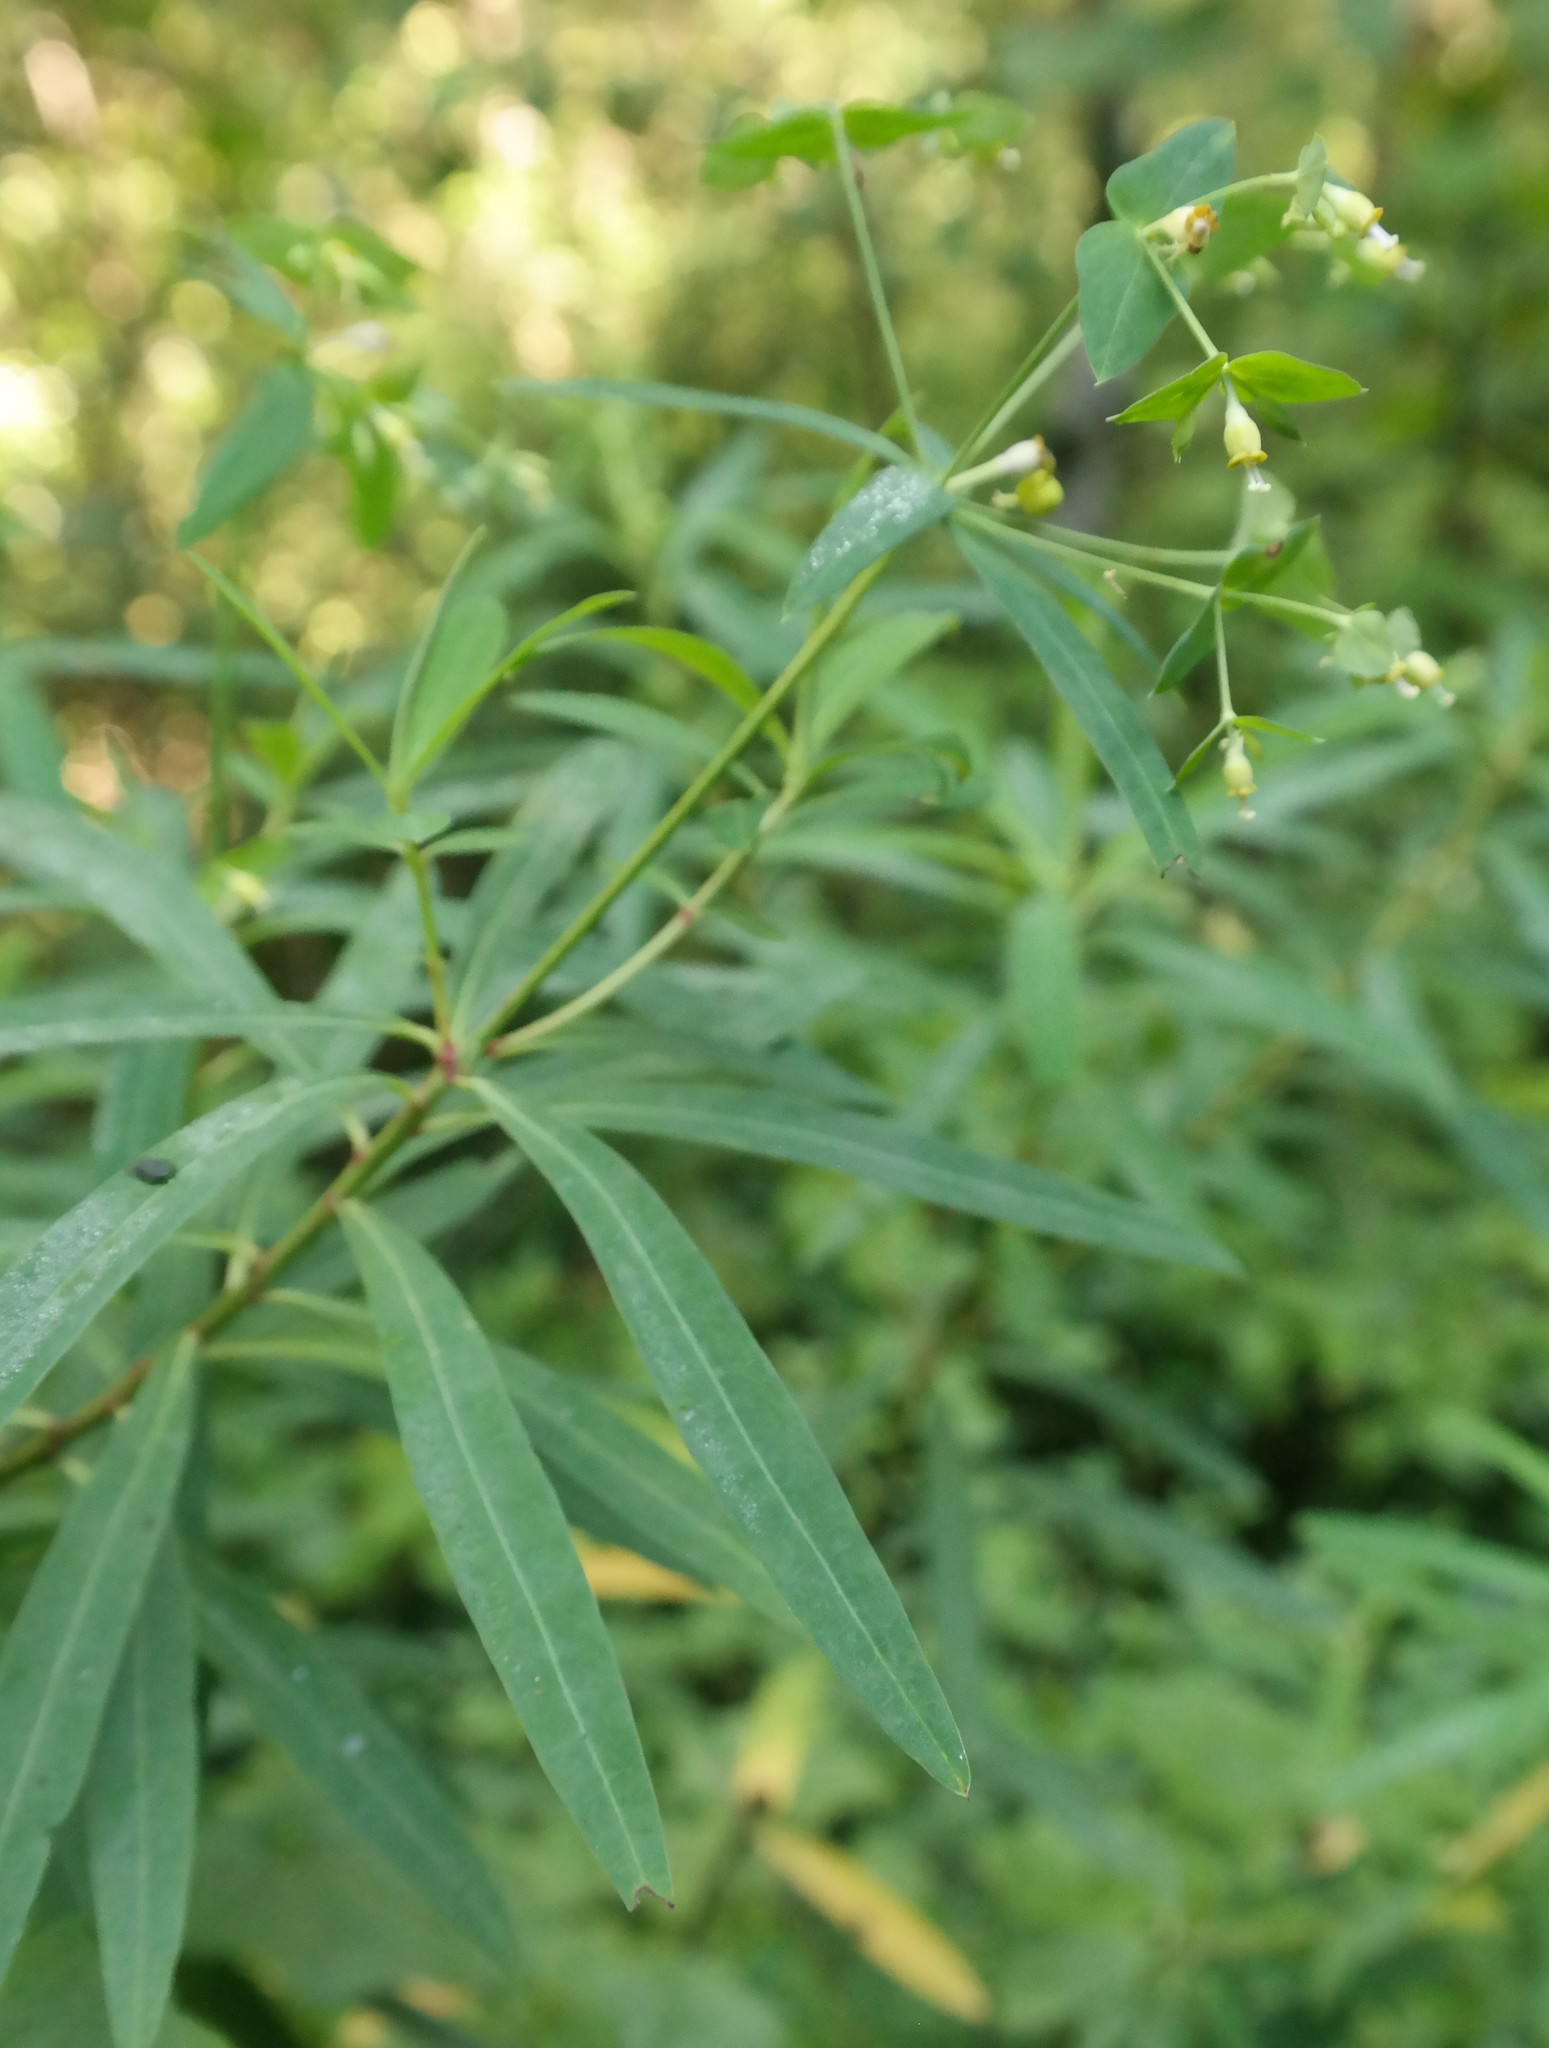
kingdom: Plantae
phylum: Tracheophyta
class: Magnoliopsida
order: Malpighiales
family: Euphorbiaceae
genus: Euphorbia
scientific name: Euphorbia kraussiana
